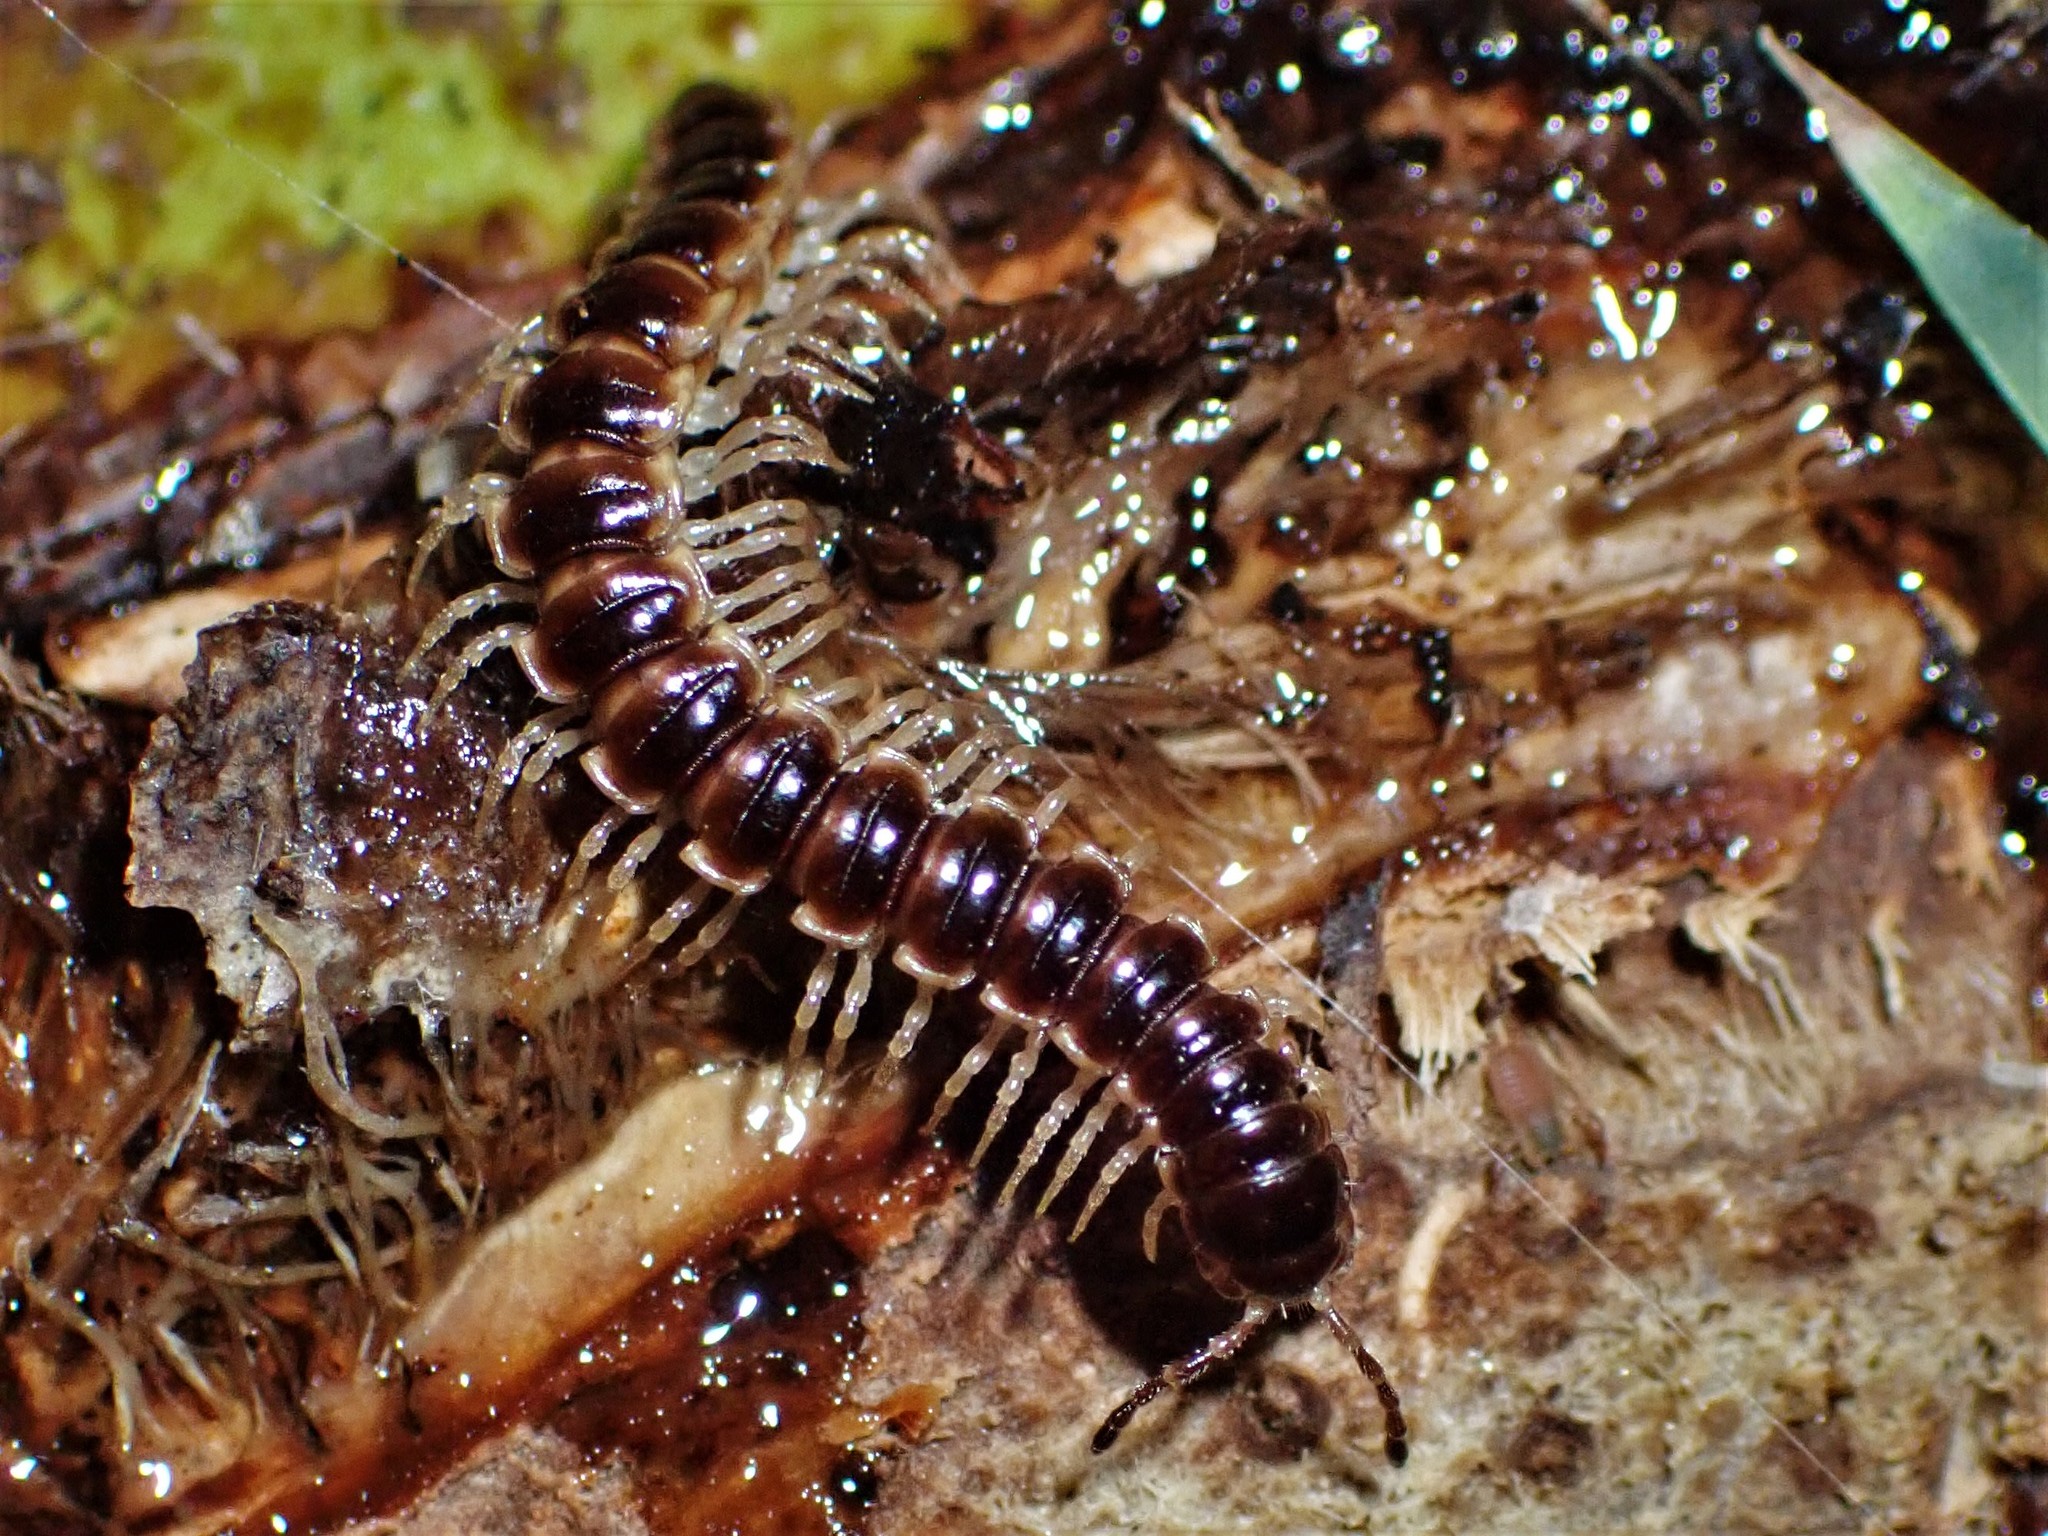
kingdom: Animalia
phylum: Arthropoda
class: Diplopoda
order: Polydesmida
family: Paradoxosomatidae
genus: Oxidus
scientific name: Oxidus gracilis
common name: Greenhouse millipede
